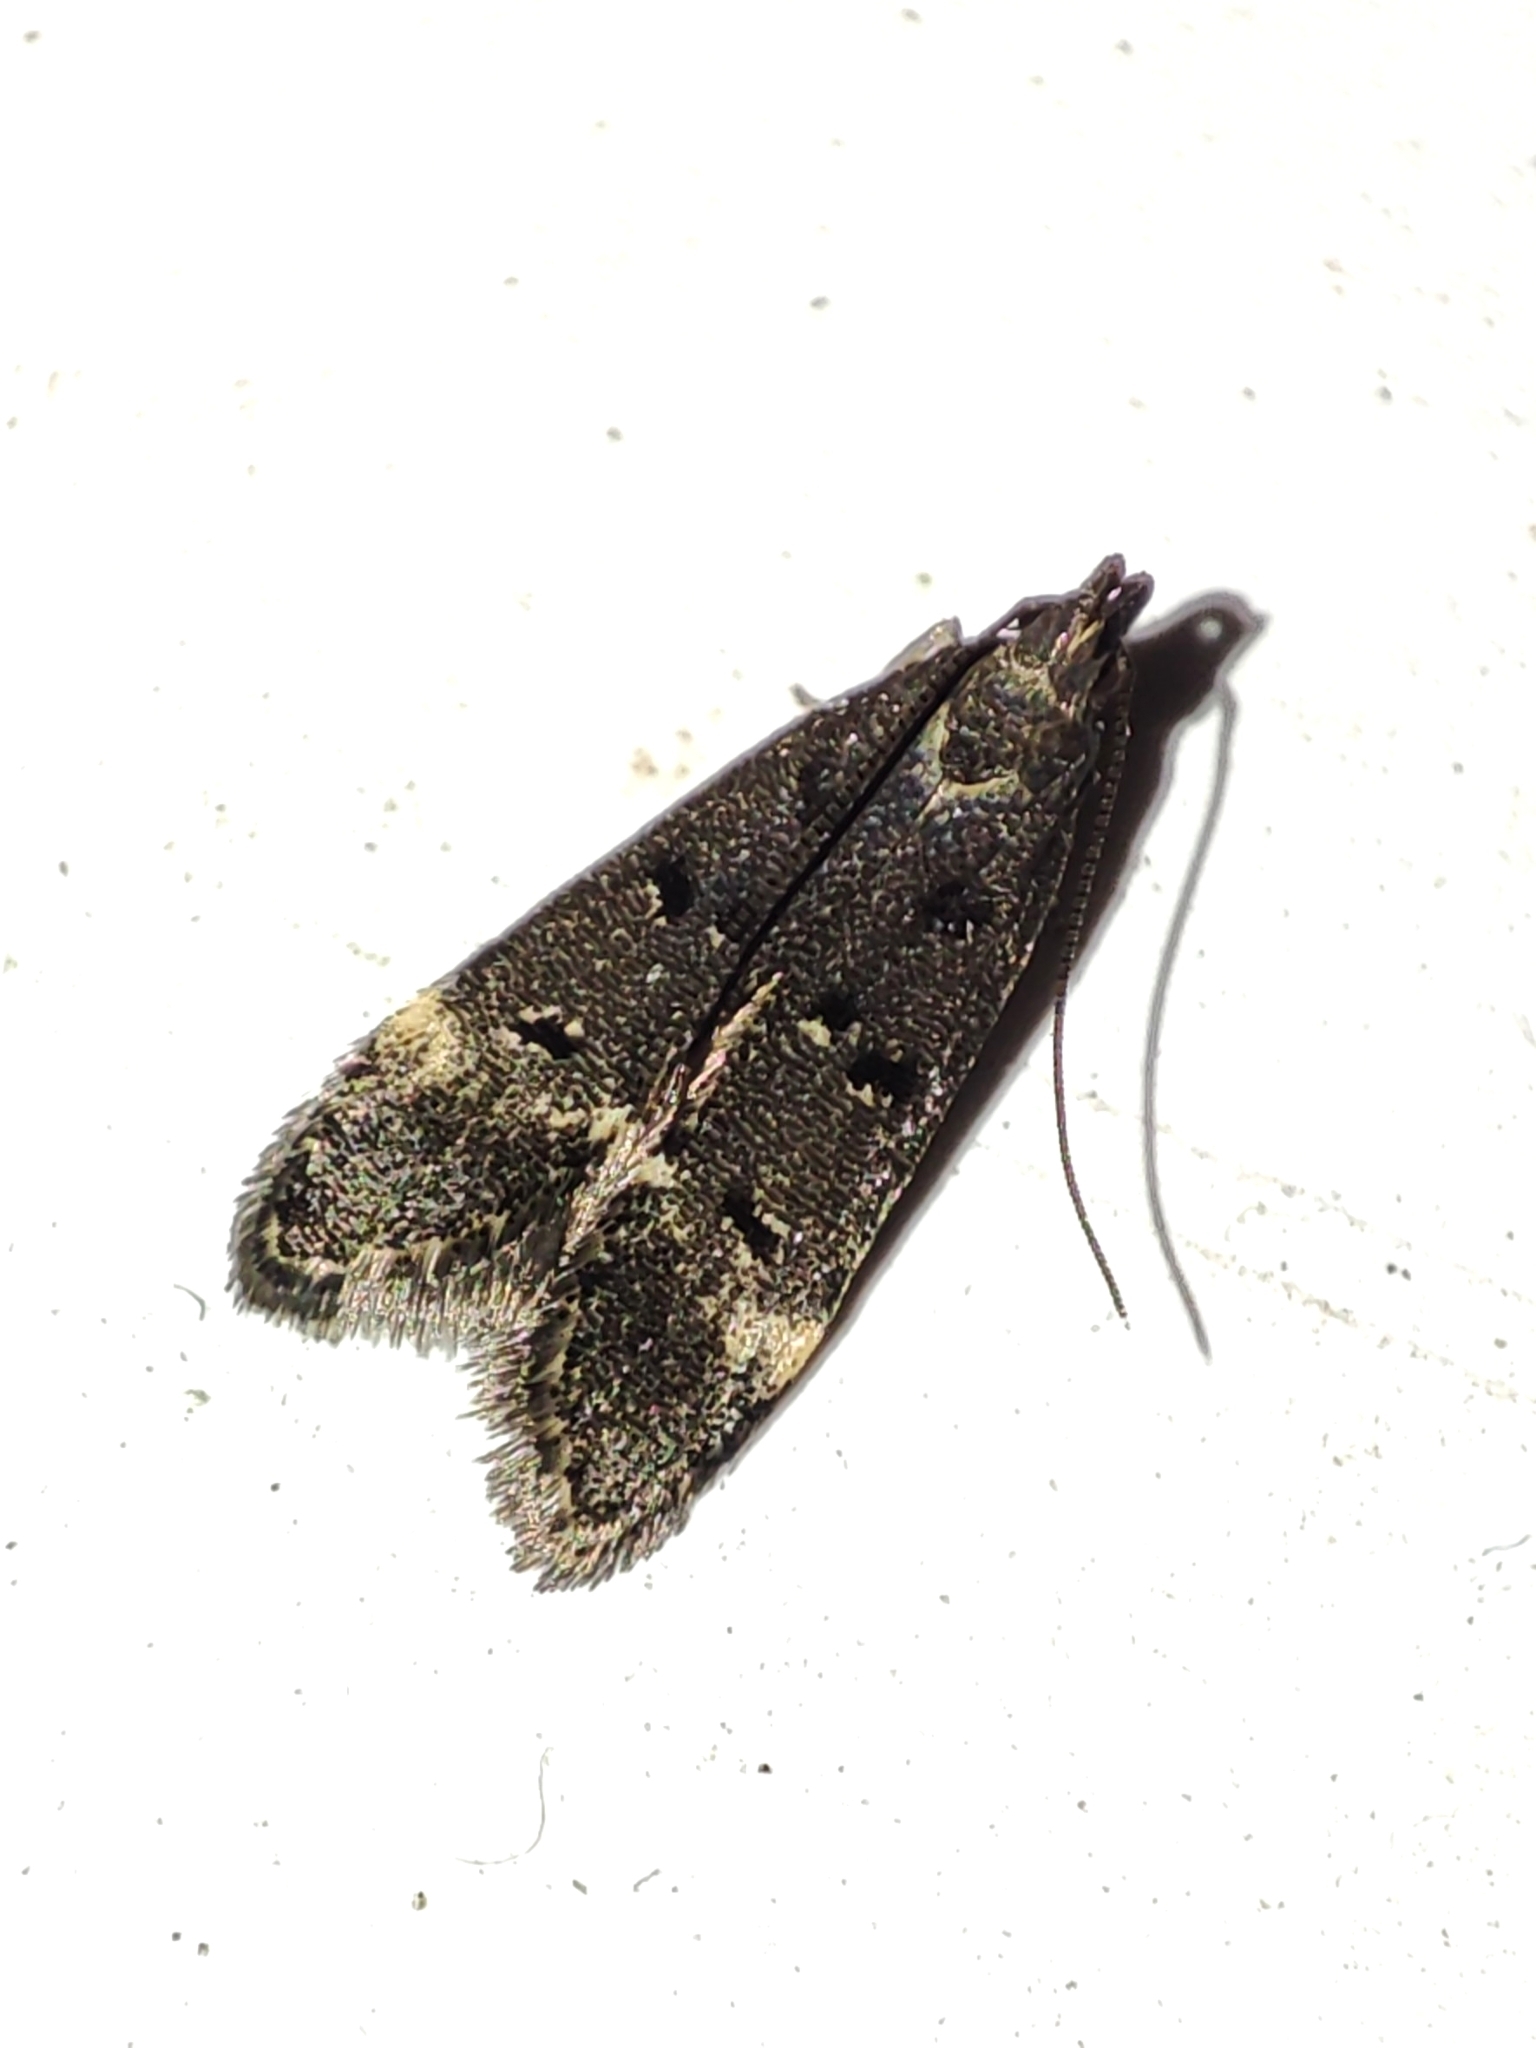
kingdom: Animalia
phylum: Arthropoda
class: Insecta
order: Lepidoptera
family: Gelechiidae
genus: Acanthophila
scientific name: Acanthophila alacella
